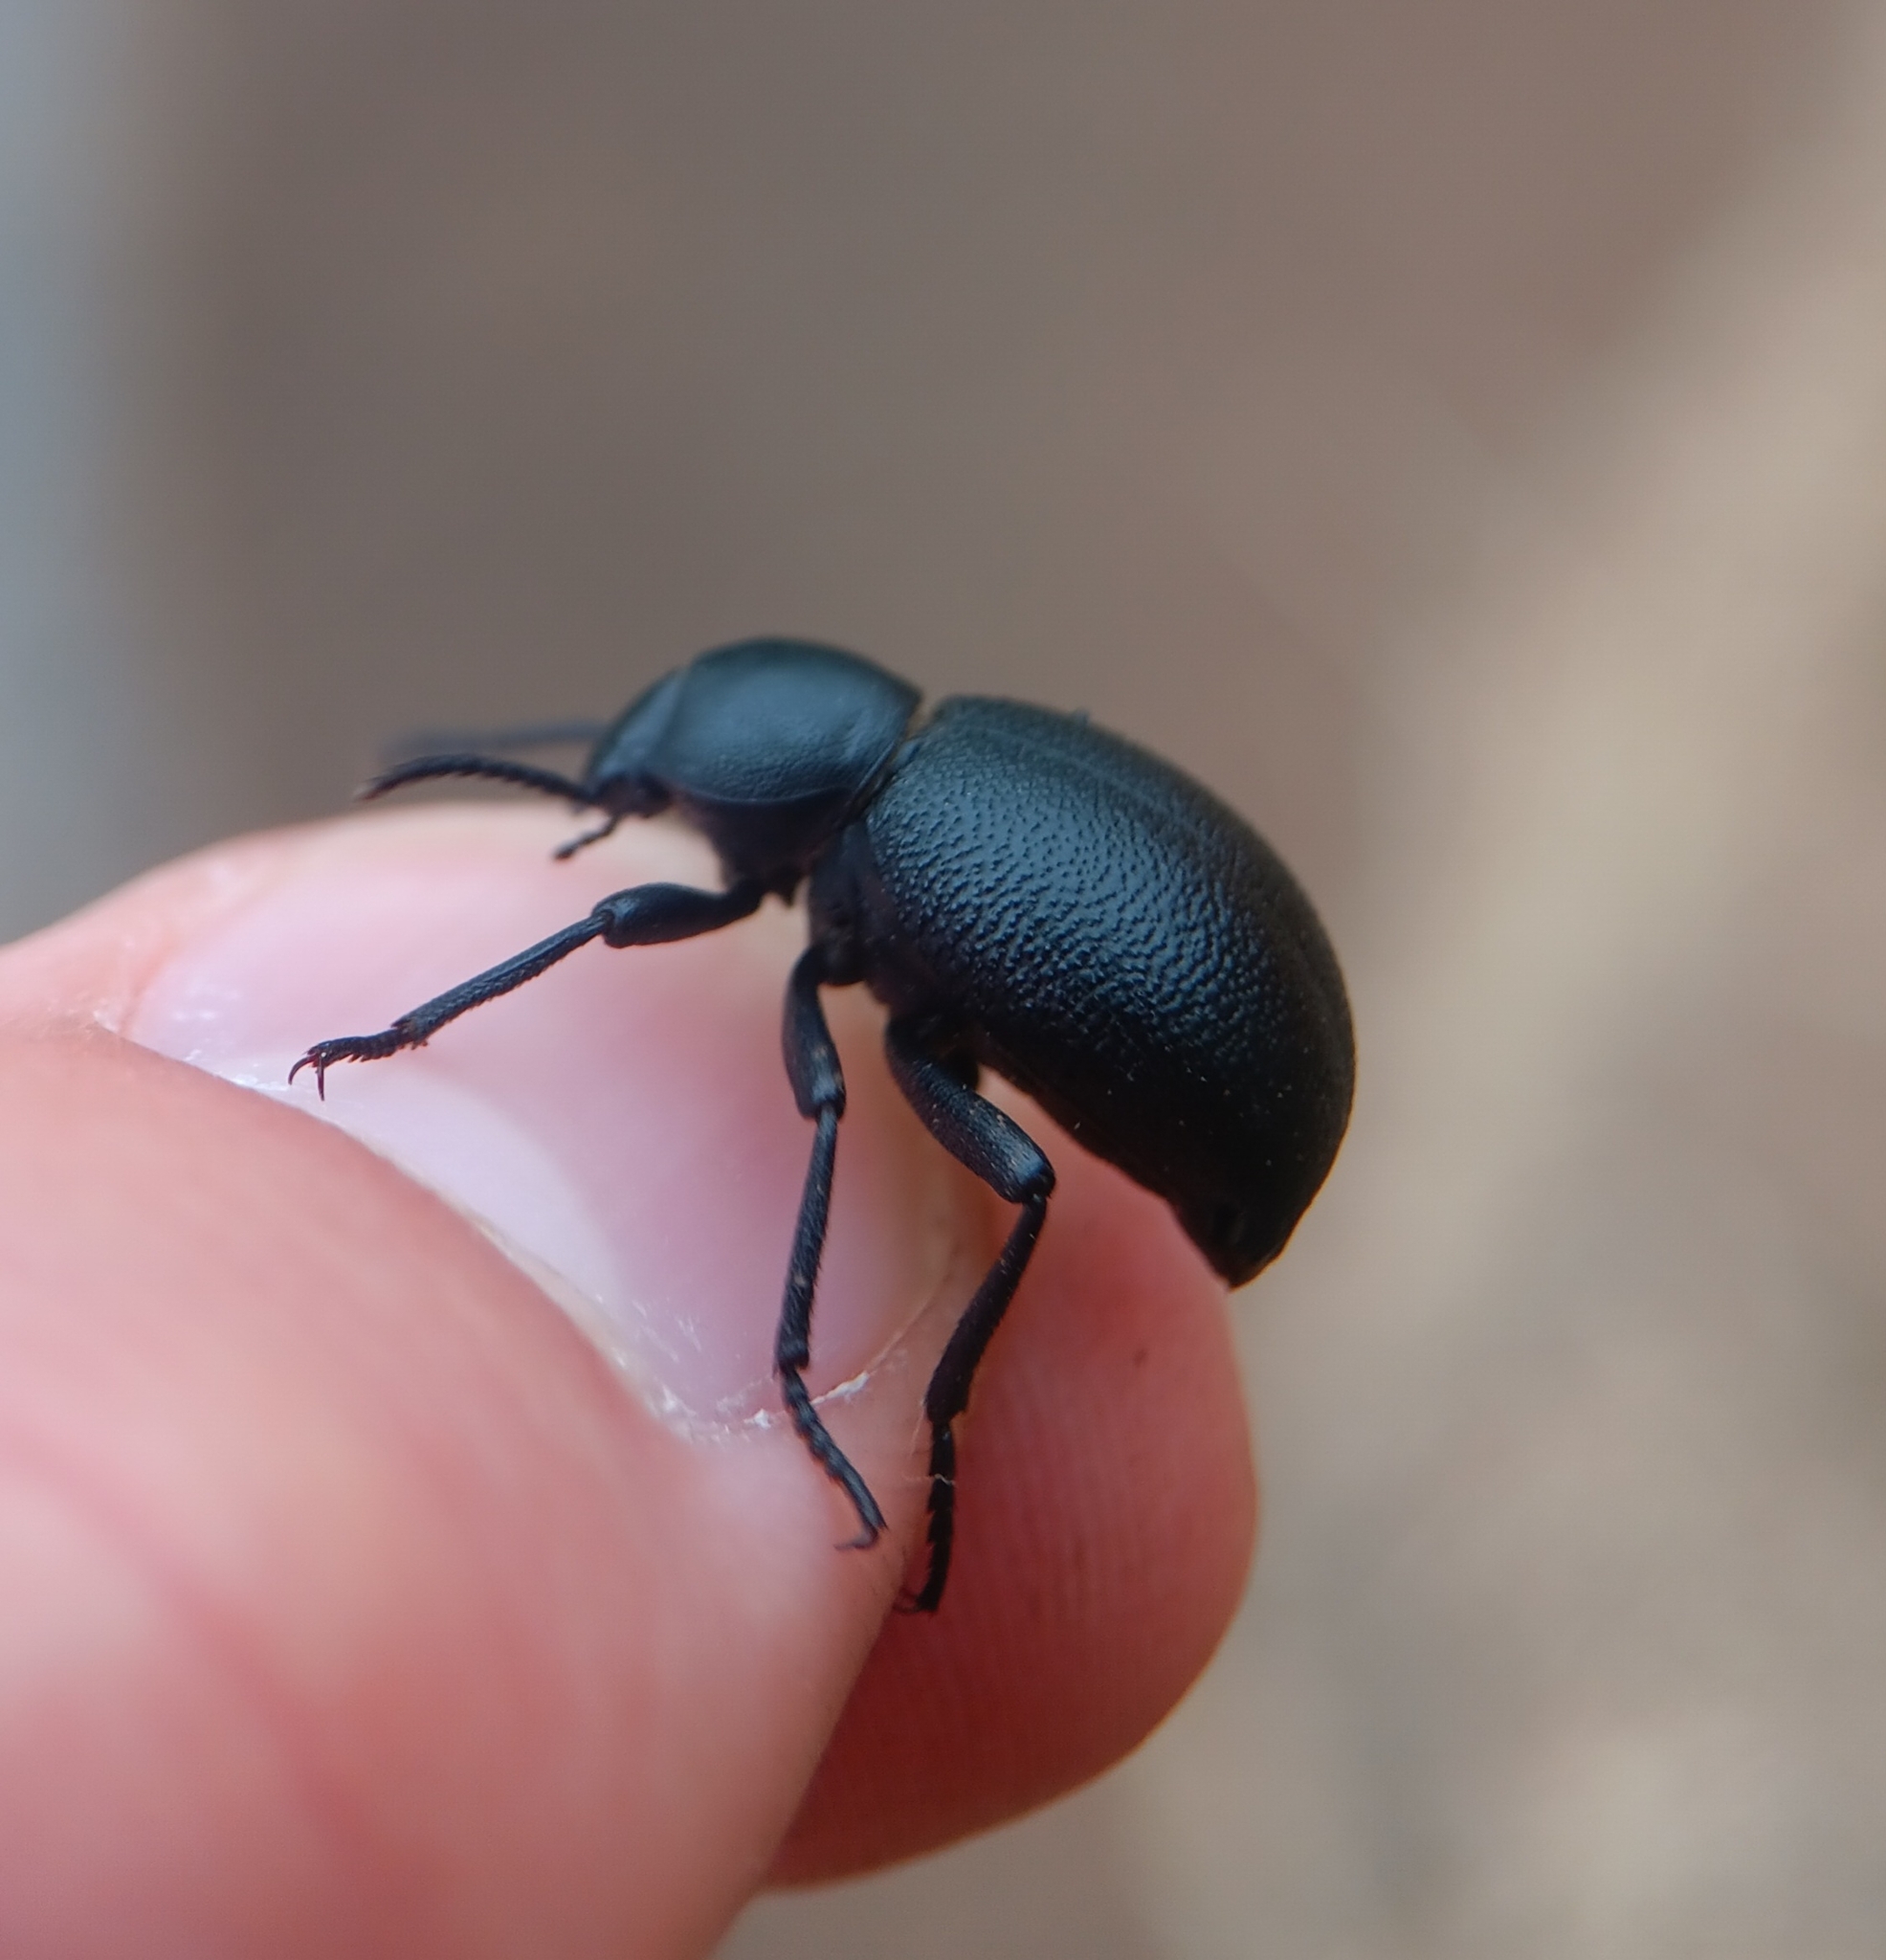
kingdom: Animalia
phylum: Arthropoda
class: Insecta
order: Coleoptera
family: Tenebrionidae
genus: Eleodes
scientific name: Eleodes neotomae
